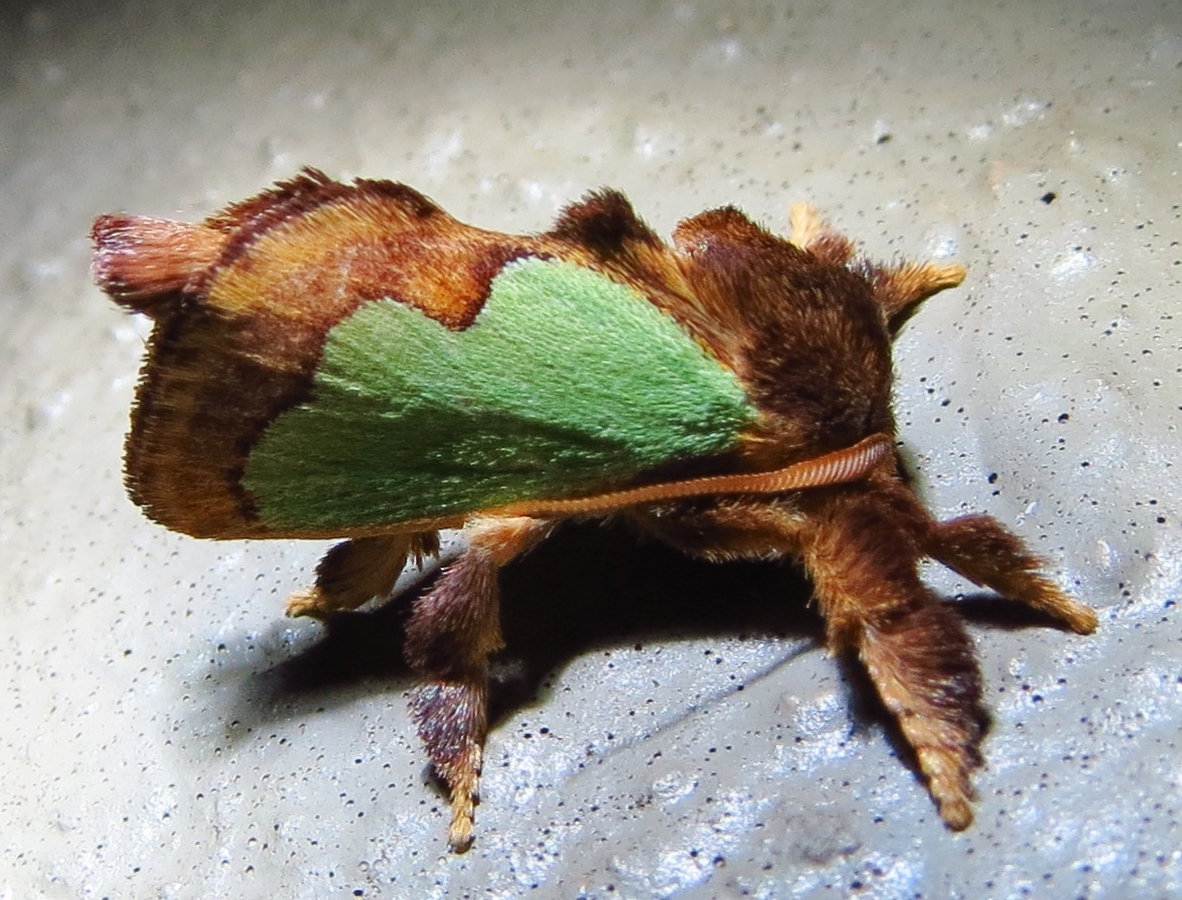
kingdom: Animalia
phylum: Arthropoda
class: Insecta
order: Lepidoptera
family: Limacodidae
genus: Euclea
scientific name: Euclea incisa
